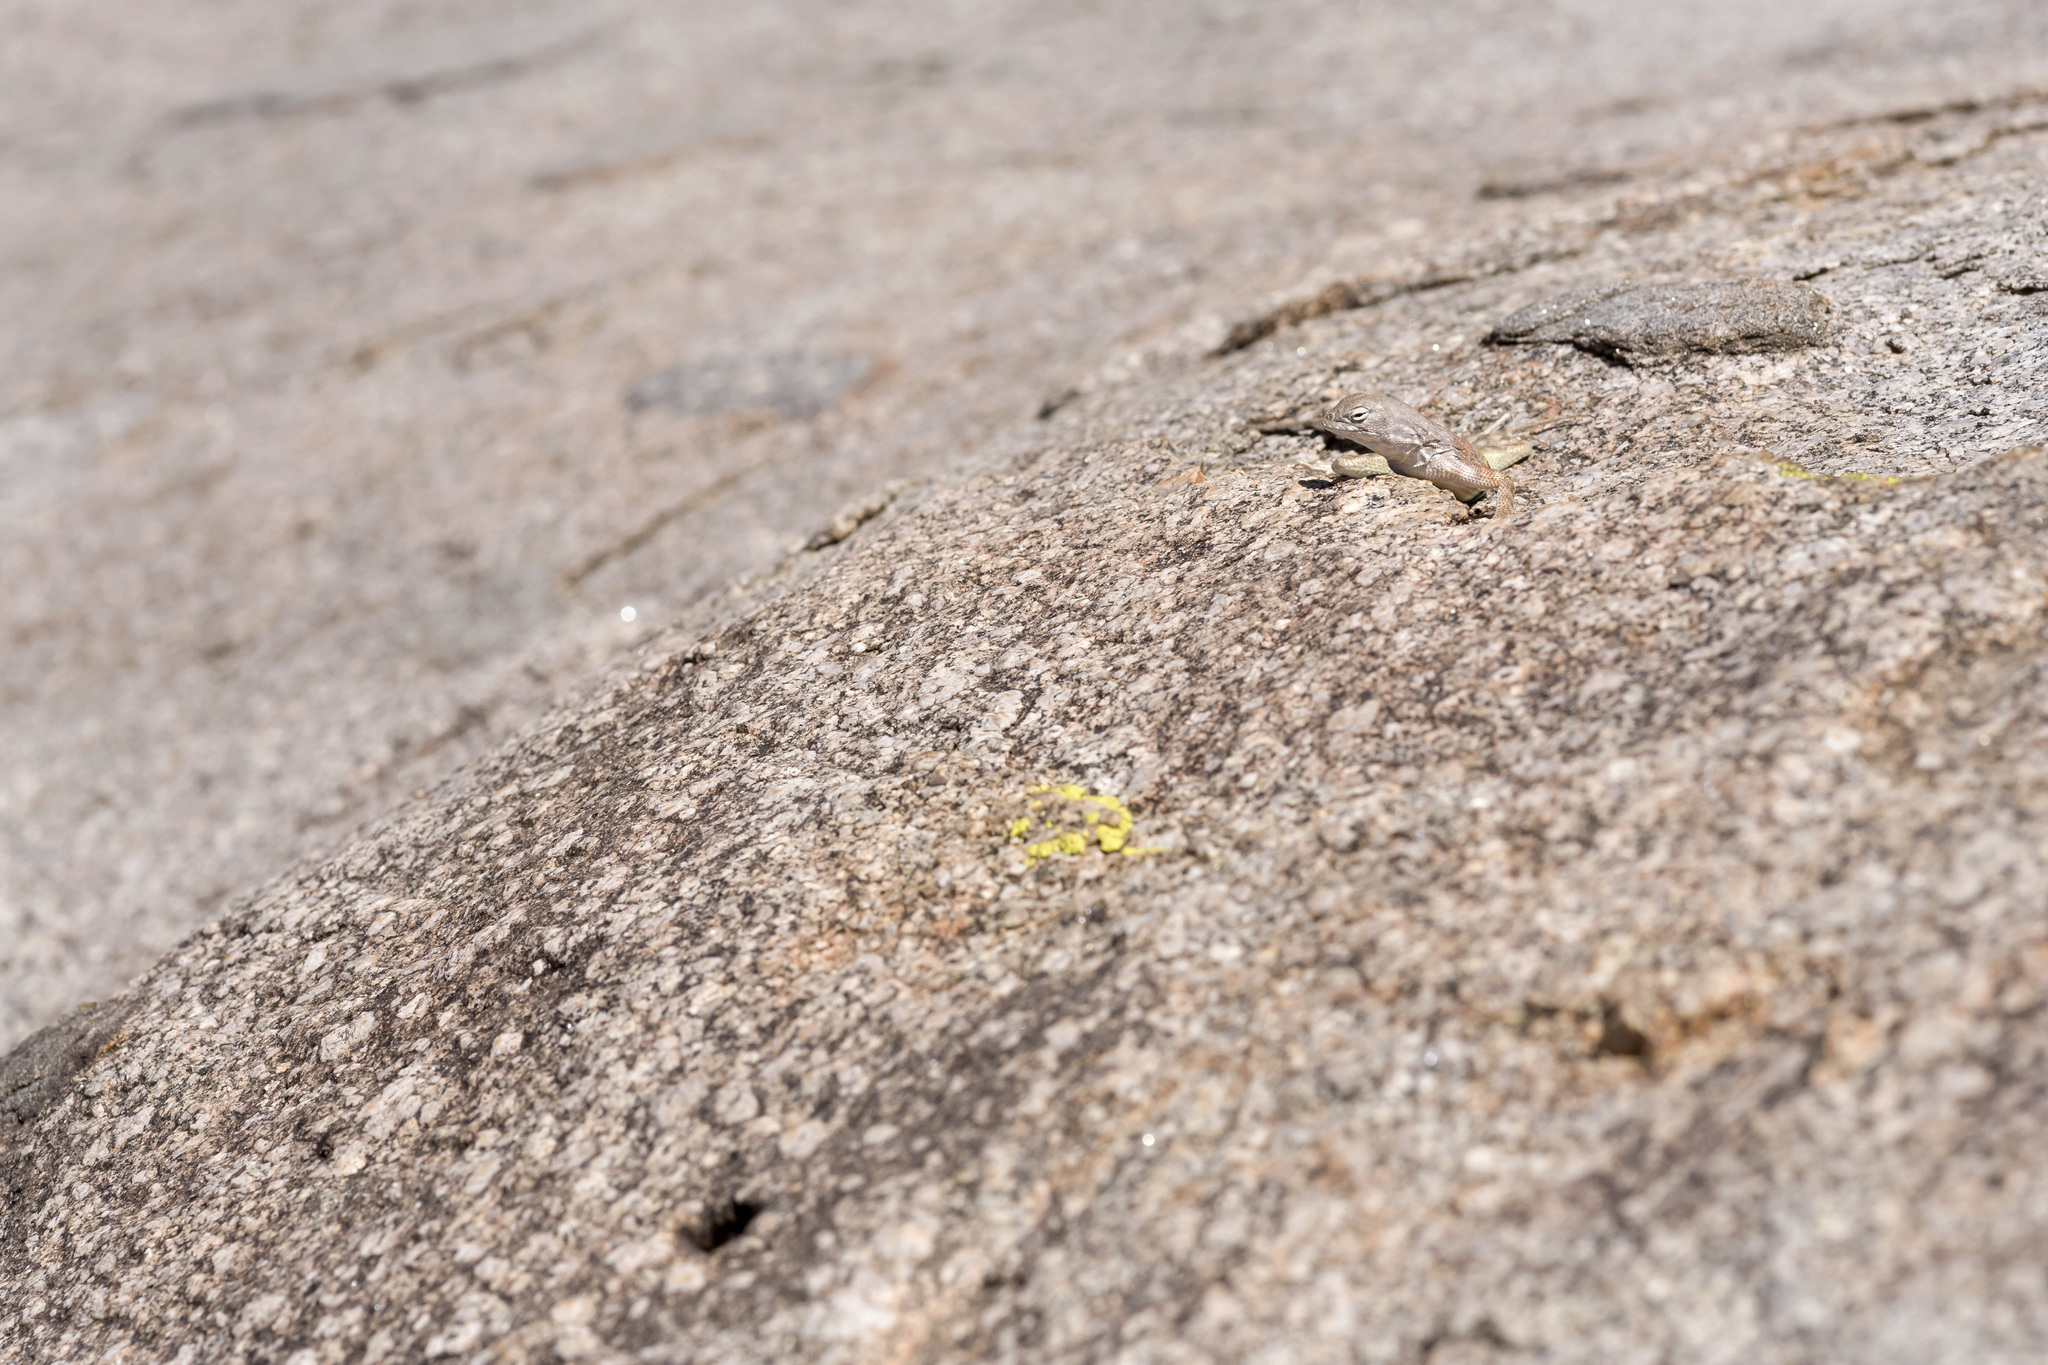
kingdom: Animalia
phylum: Chordata
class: Squamata
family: Phrynosomatidae
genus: Cophosaurus
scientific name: Cophosaurus texanus
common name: Greater earless lizard
